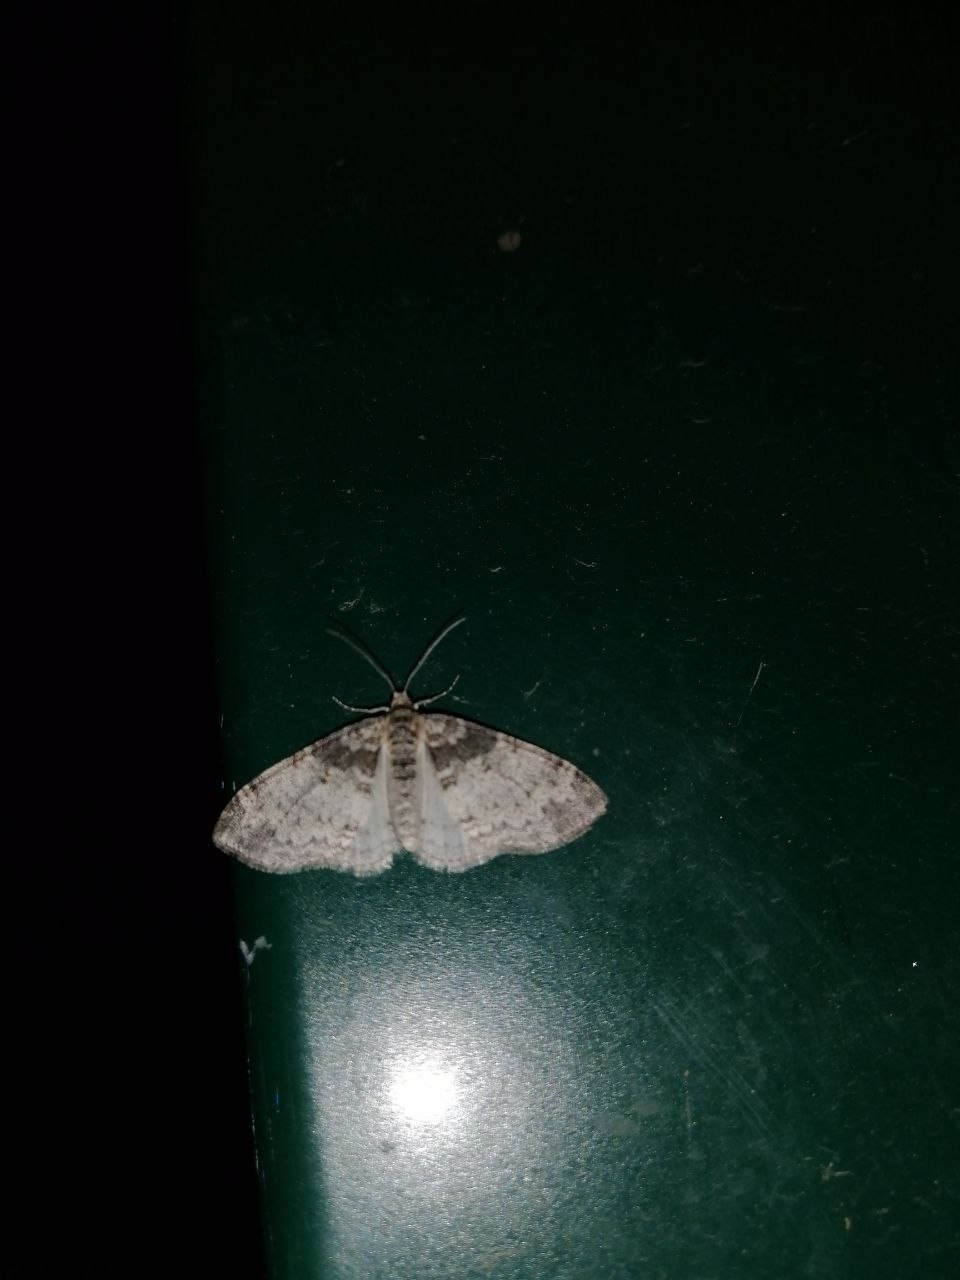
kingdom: Animalia
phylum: Arthropoda
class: Insecta
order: Lepidoptera
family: Geometridae
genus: Lobophora
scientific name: Lobophora halterata
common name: Seraphim
